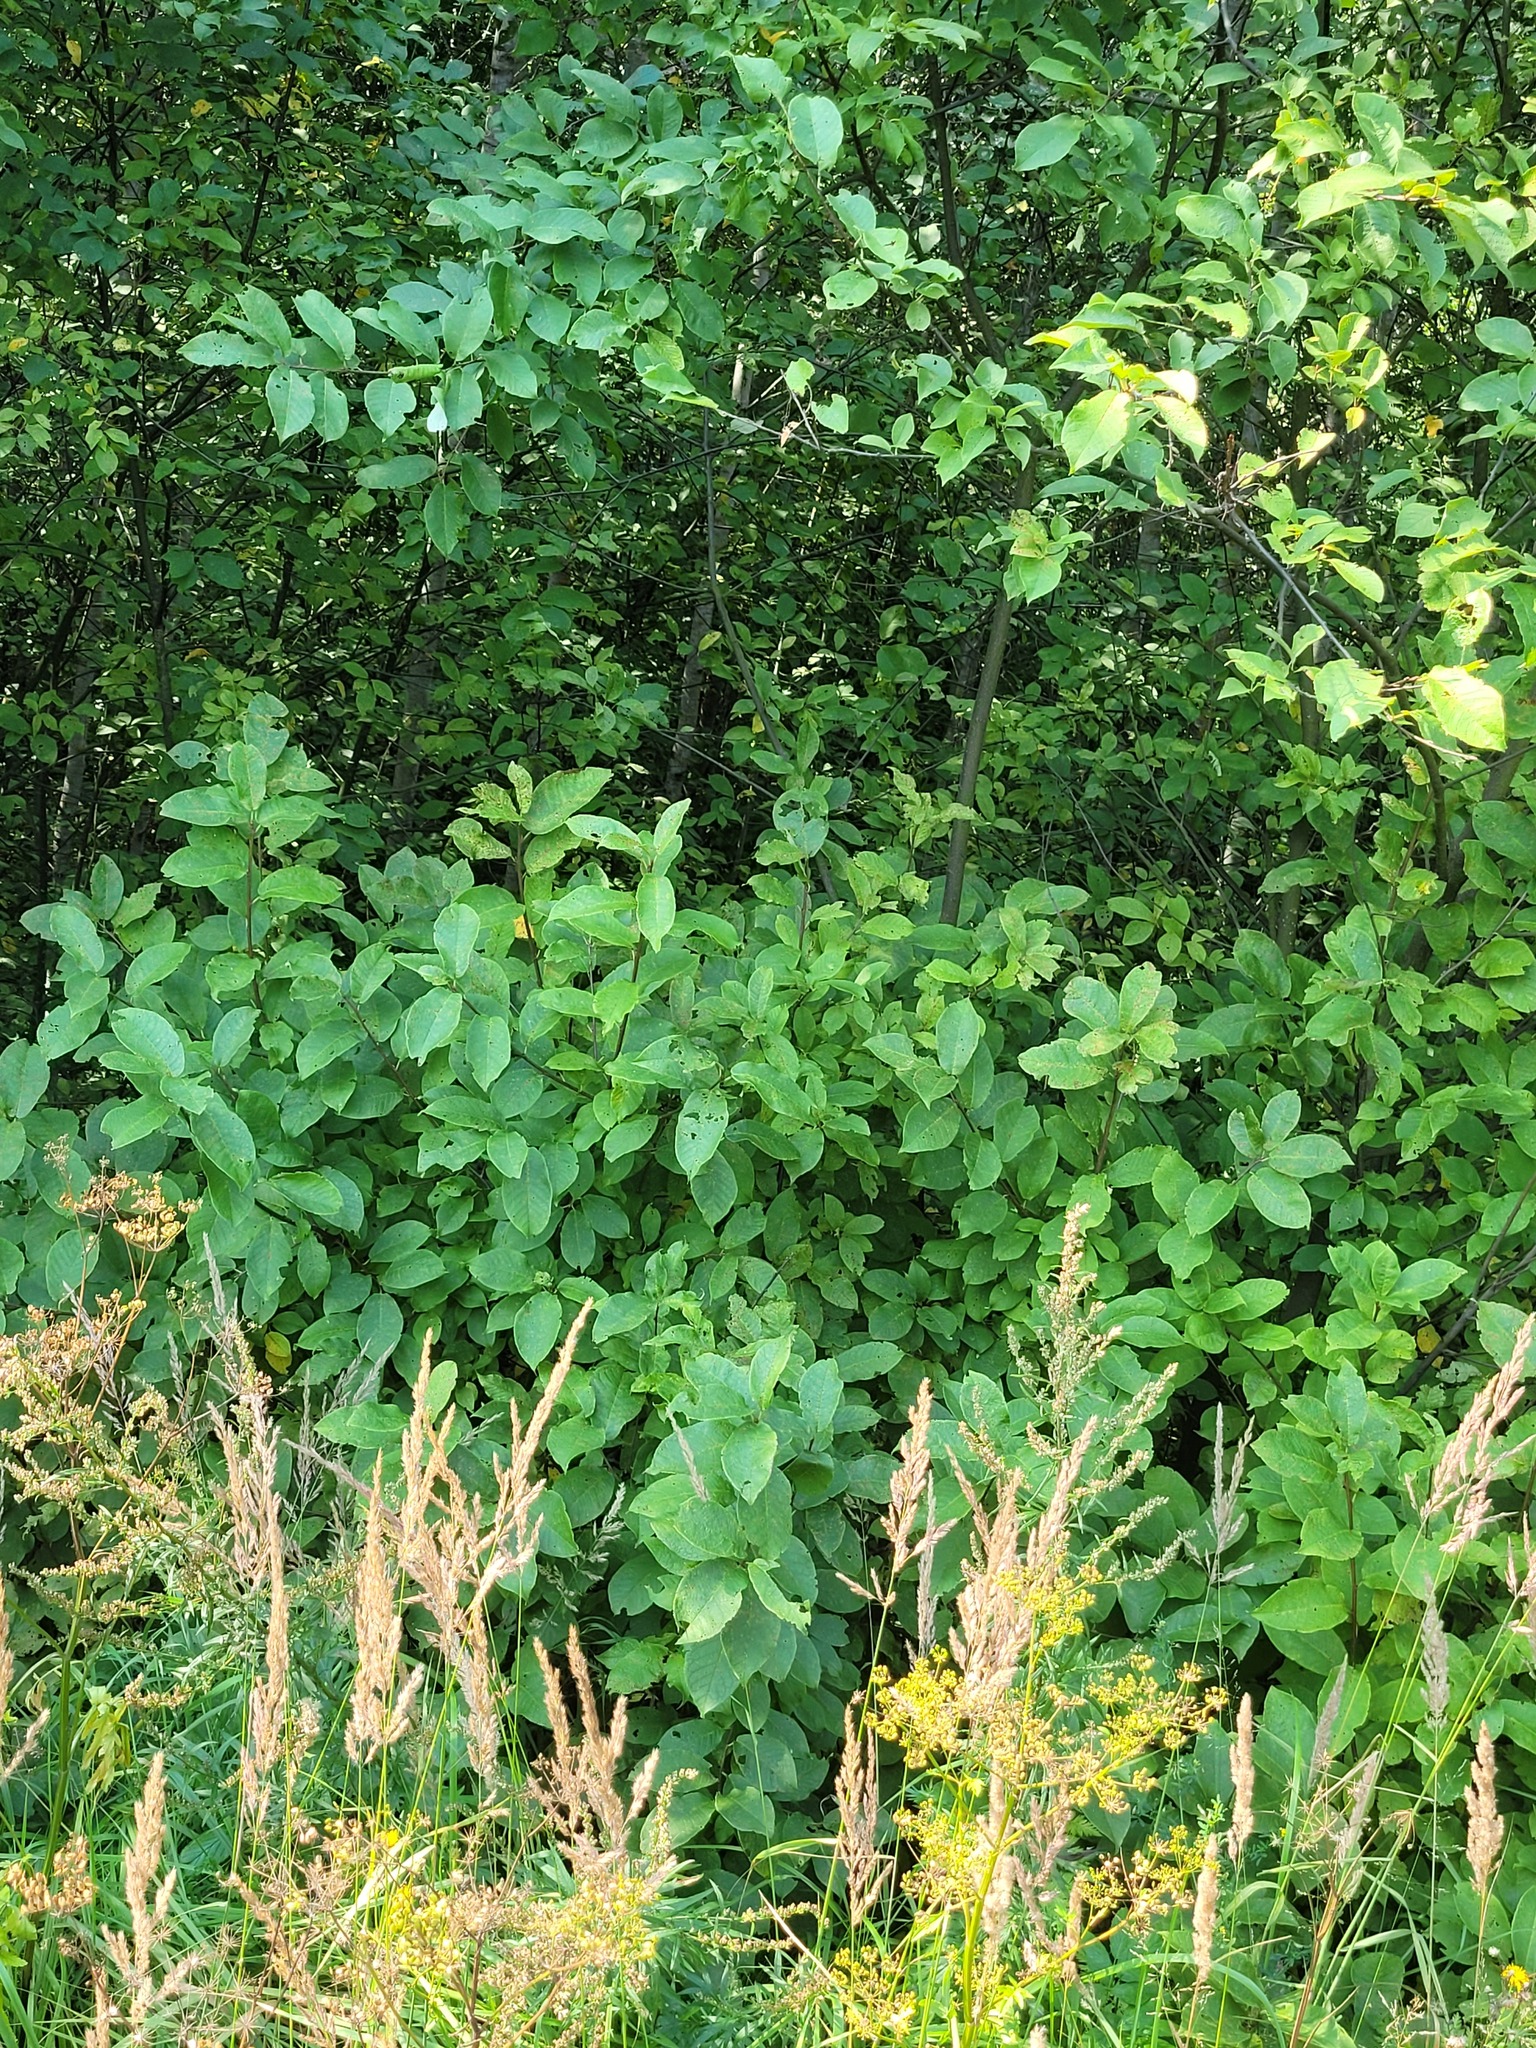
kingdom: Plantae
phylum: Tracheophyta
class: Magnoliopsida
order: Rosales
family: Rosaceae
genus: Prunus
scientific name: Prunus padus
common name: Bird cherry
